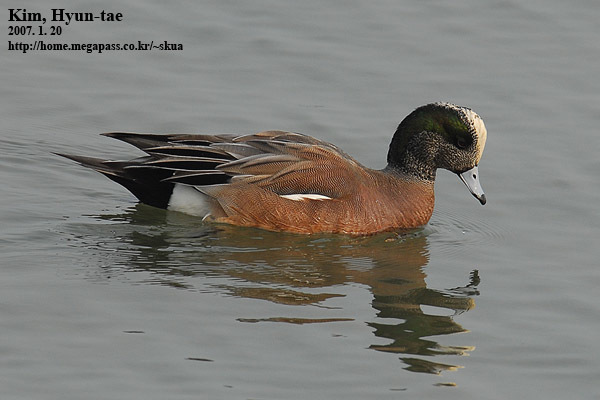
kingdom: Animalia
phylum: Chordata
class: Aves
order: Anseriformes
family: Anatidae
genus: Mareca
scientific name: Mareca americana
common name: American wigeon
